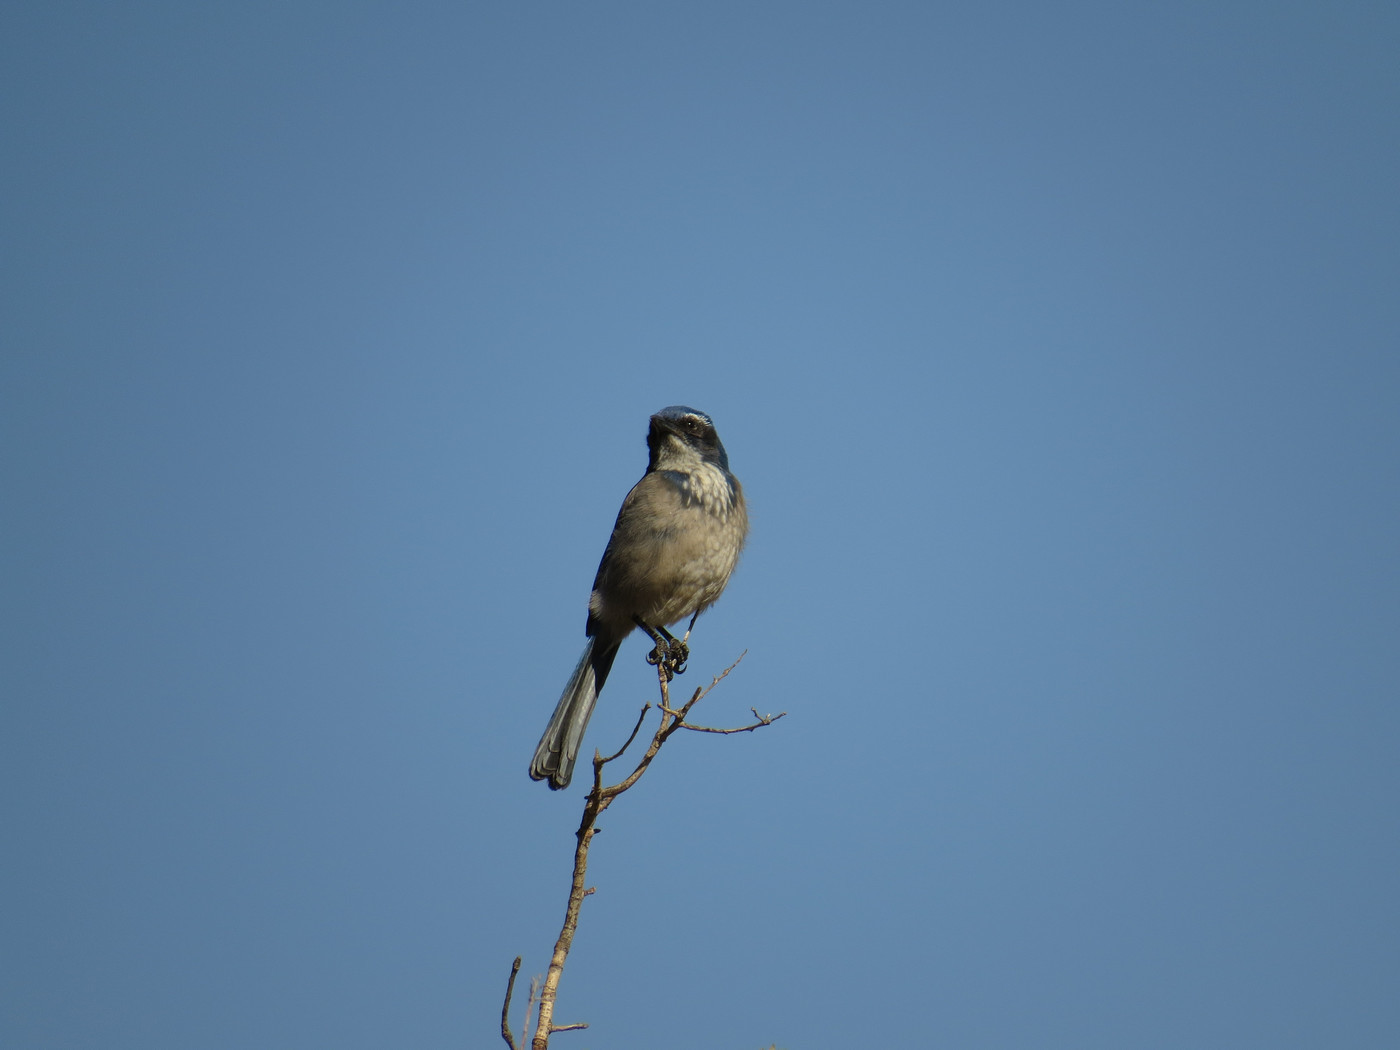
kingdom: Animalia
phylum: Chordata
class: Aves
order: Passeriformes
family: Corvidae
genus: Aphelocoma
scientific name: Aphelocoma californica
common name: California scrub-jay
